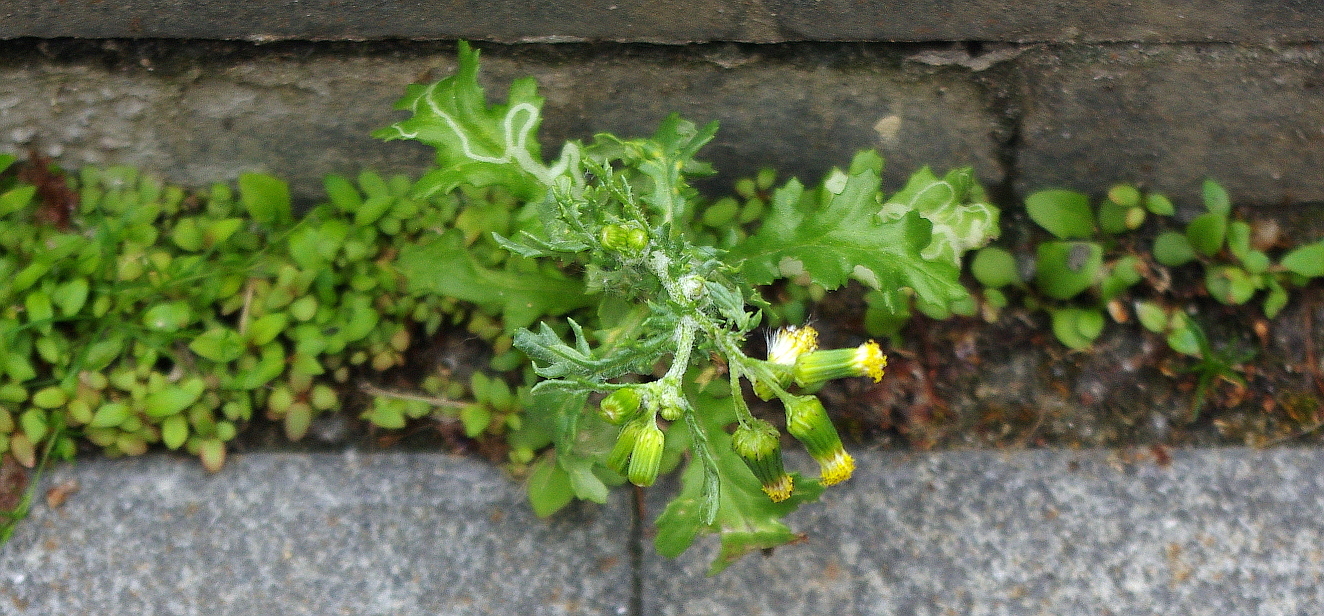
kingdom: Plantae
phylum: Tracheophyta
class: Magnoliopsida
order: Asterales
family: Asteraceae
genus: Senecio
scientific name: Senecio vulgaris
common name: Old-man-in-the-spring
